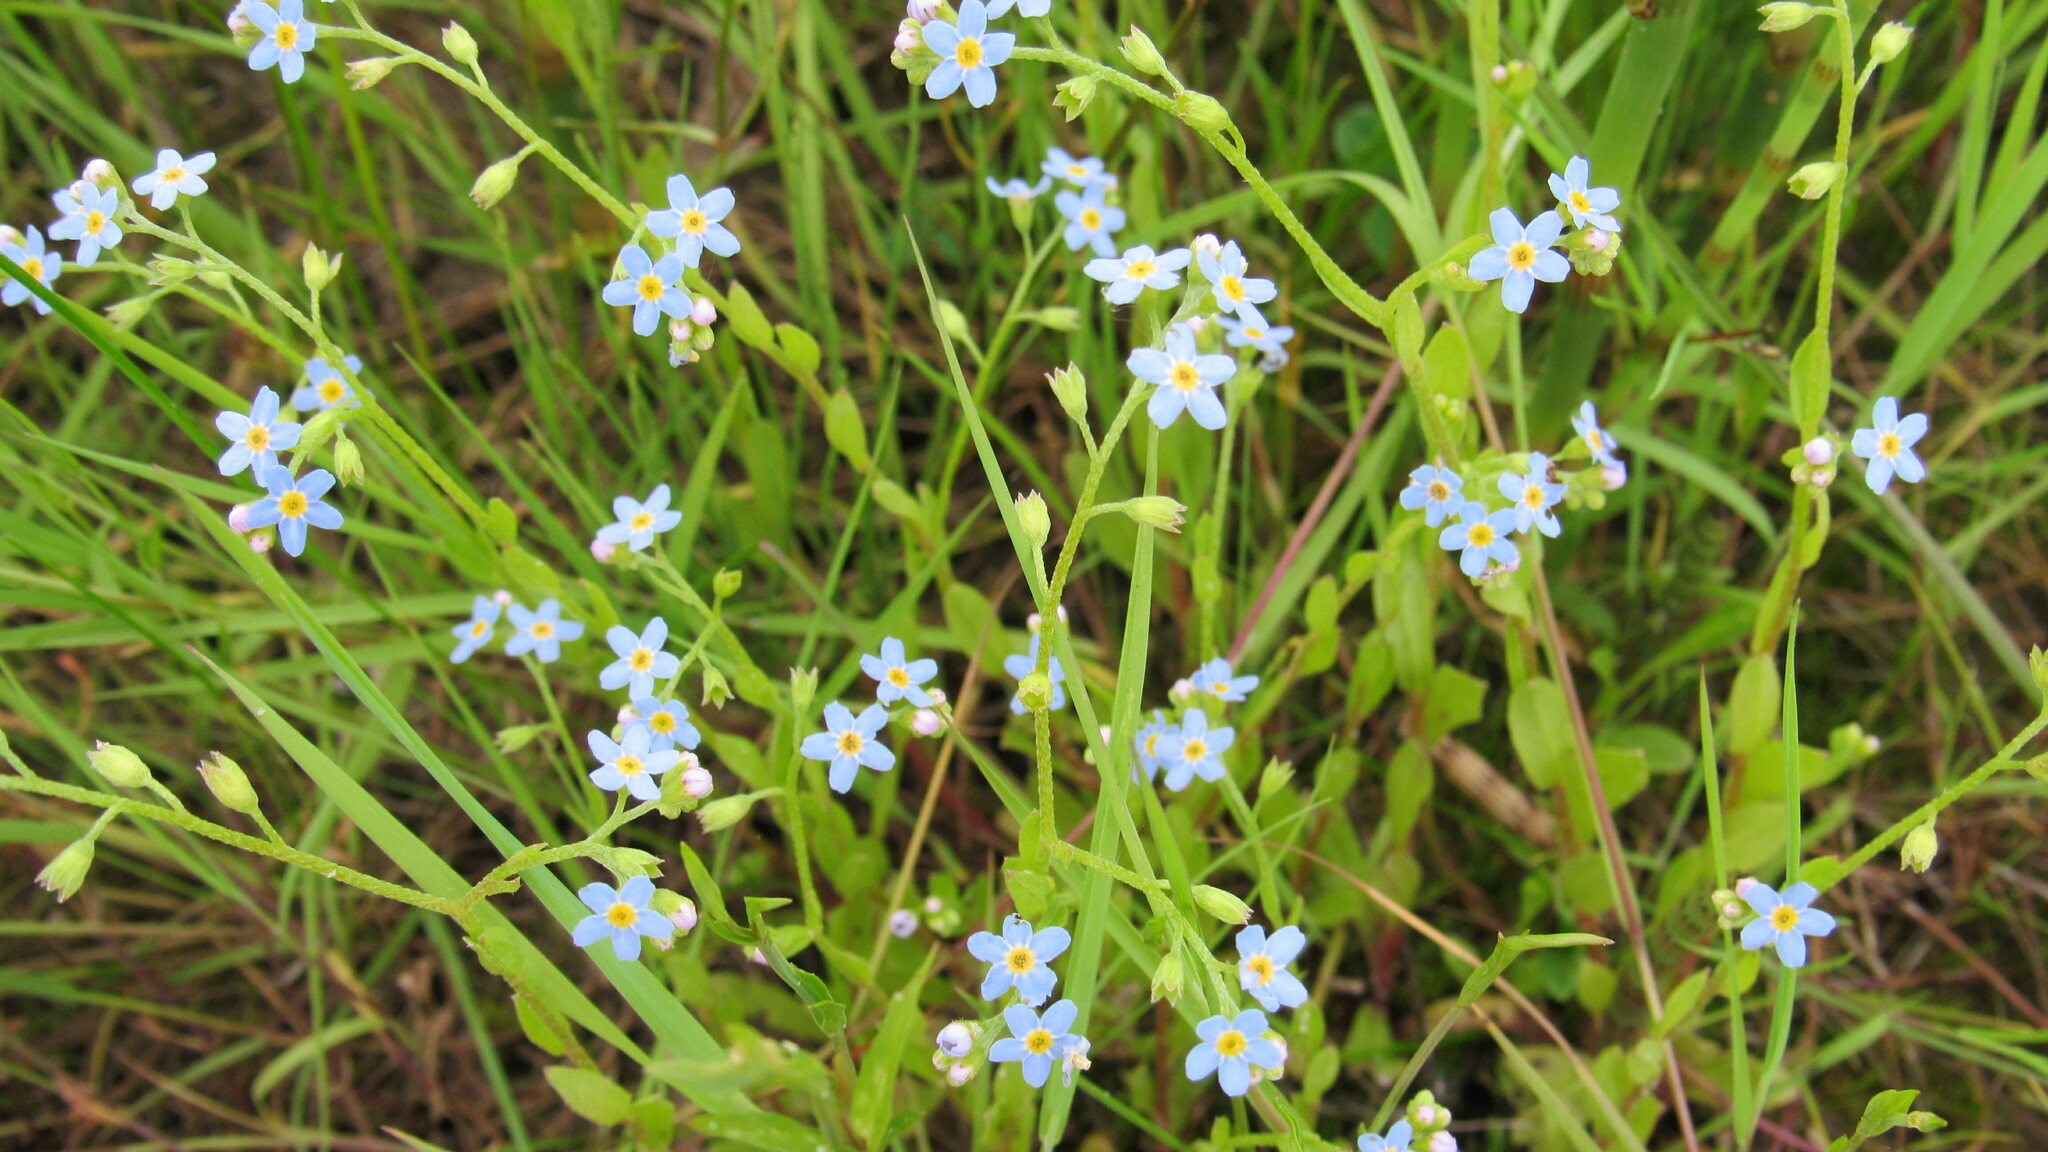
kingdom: Plantae
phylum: Tracheophyta
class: Magnoliopsida
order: Boraginales
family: Boraginaceae
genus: Myosotis
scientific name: Myosotis laxa
